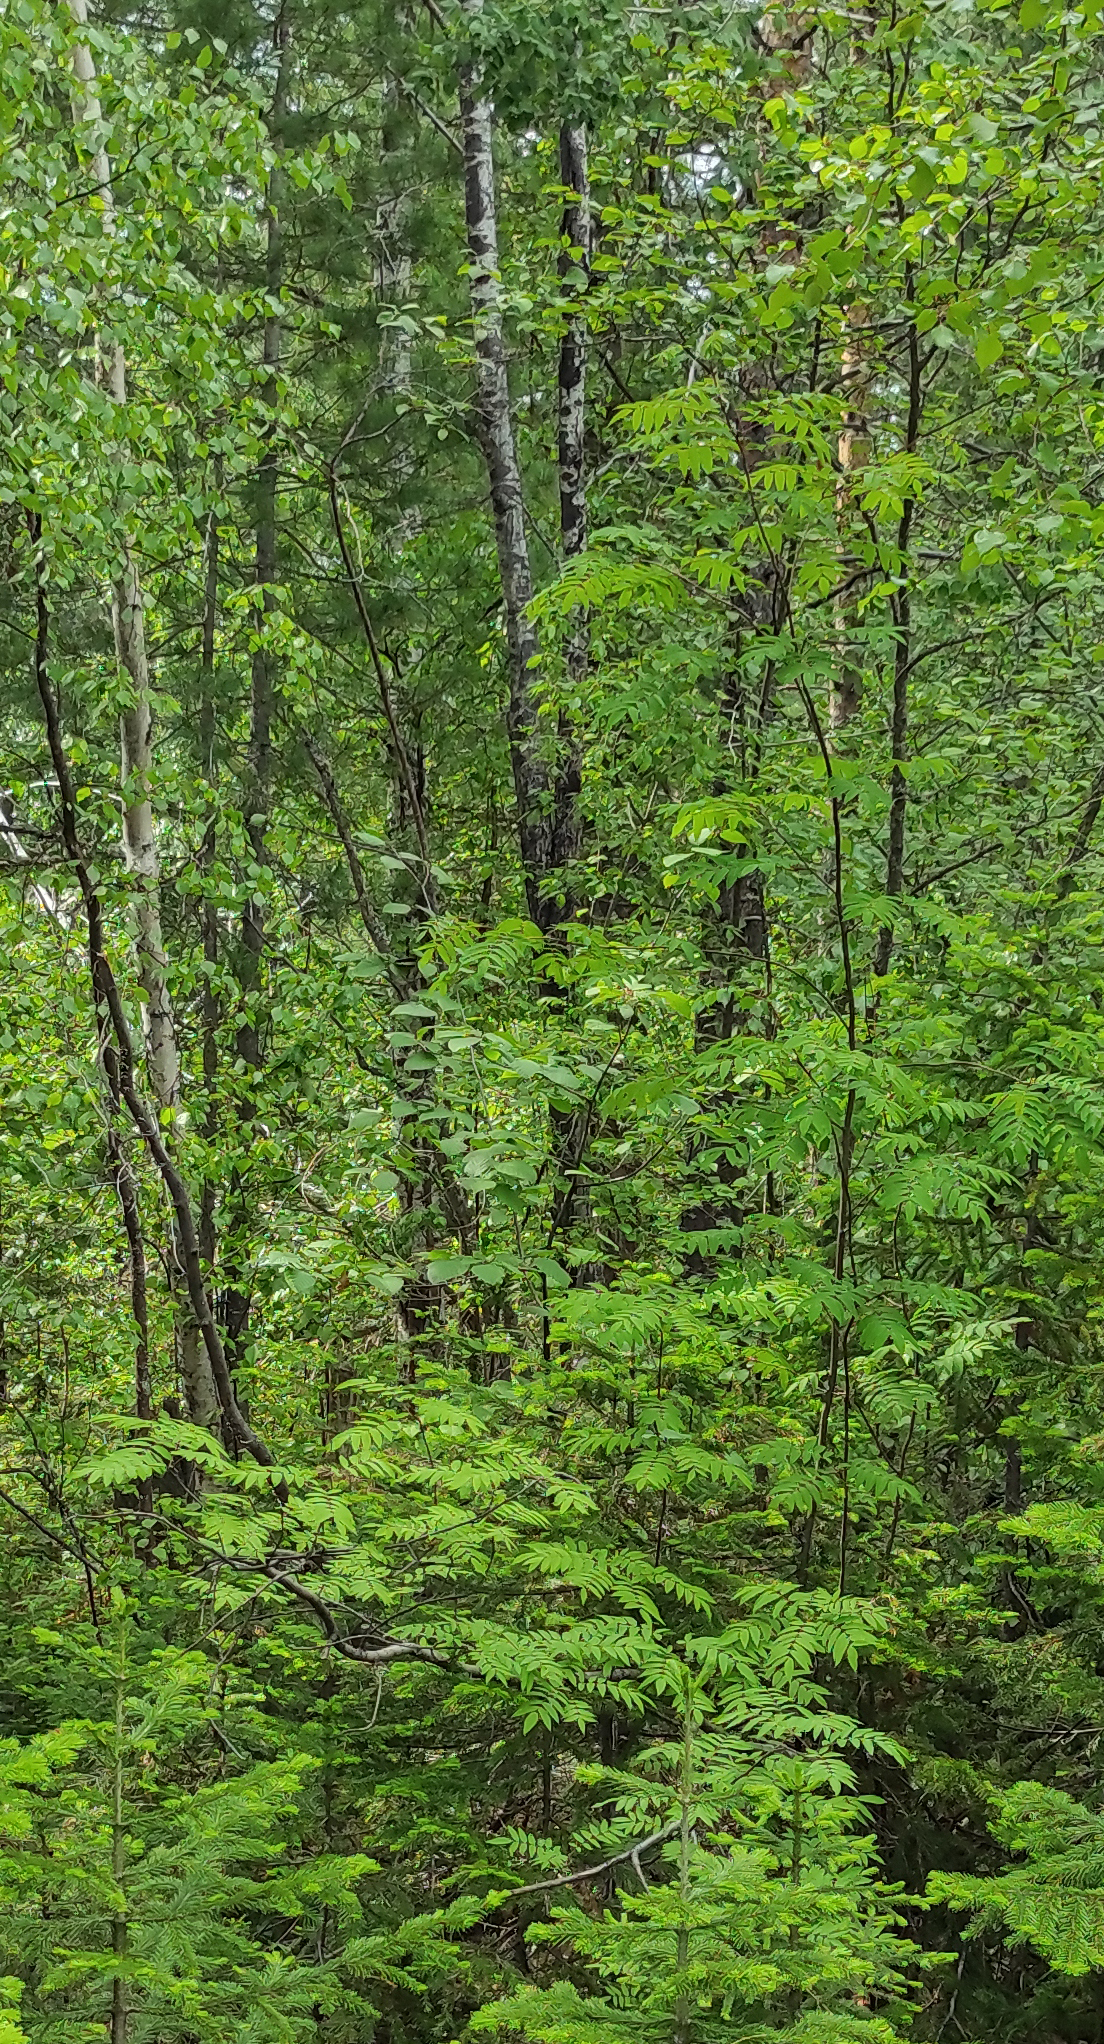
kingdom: Plantae
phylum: Tracheophyta
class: Pinopsida
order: Pinales
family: Pinaceae
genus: Abies
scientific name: Abies sibirica
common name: Siberian fir
